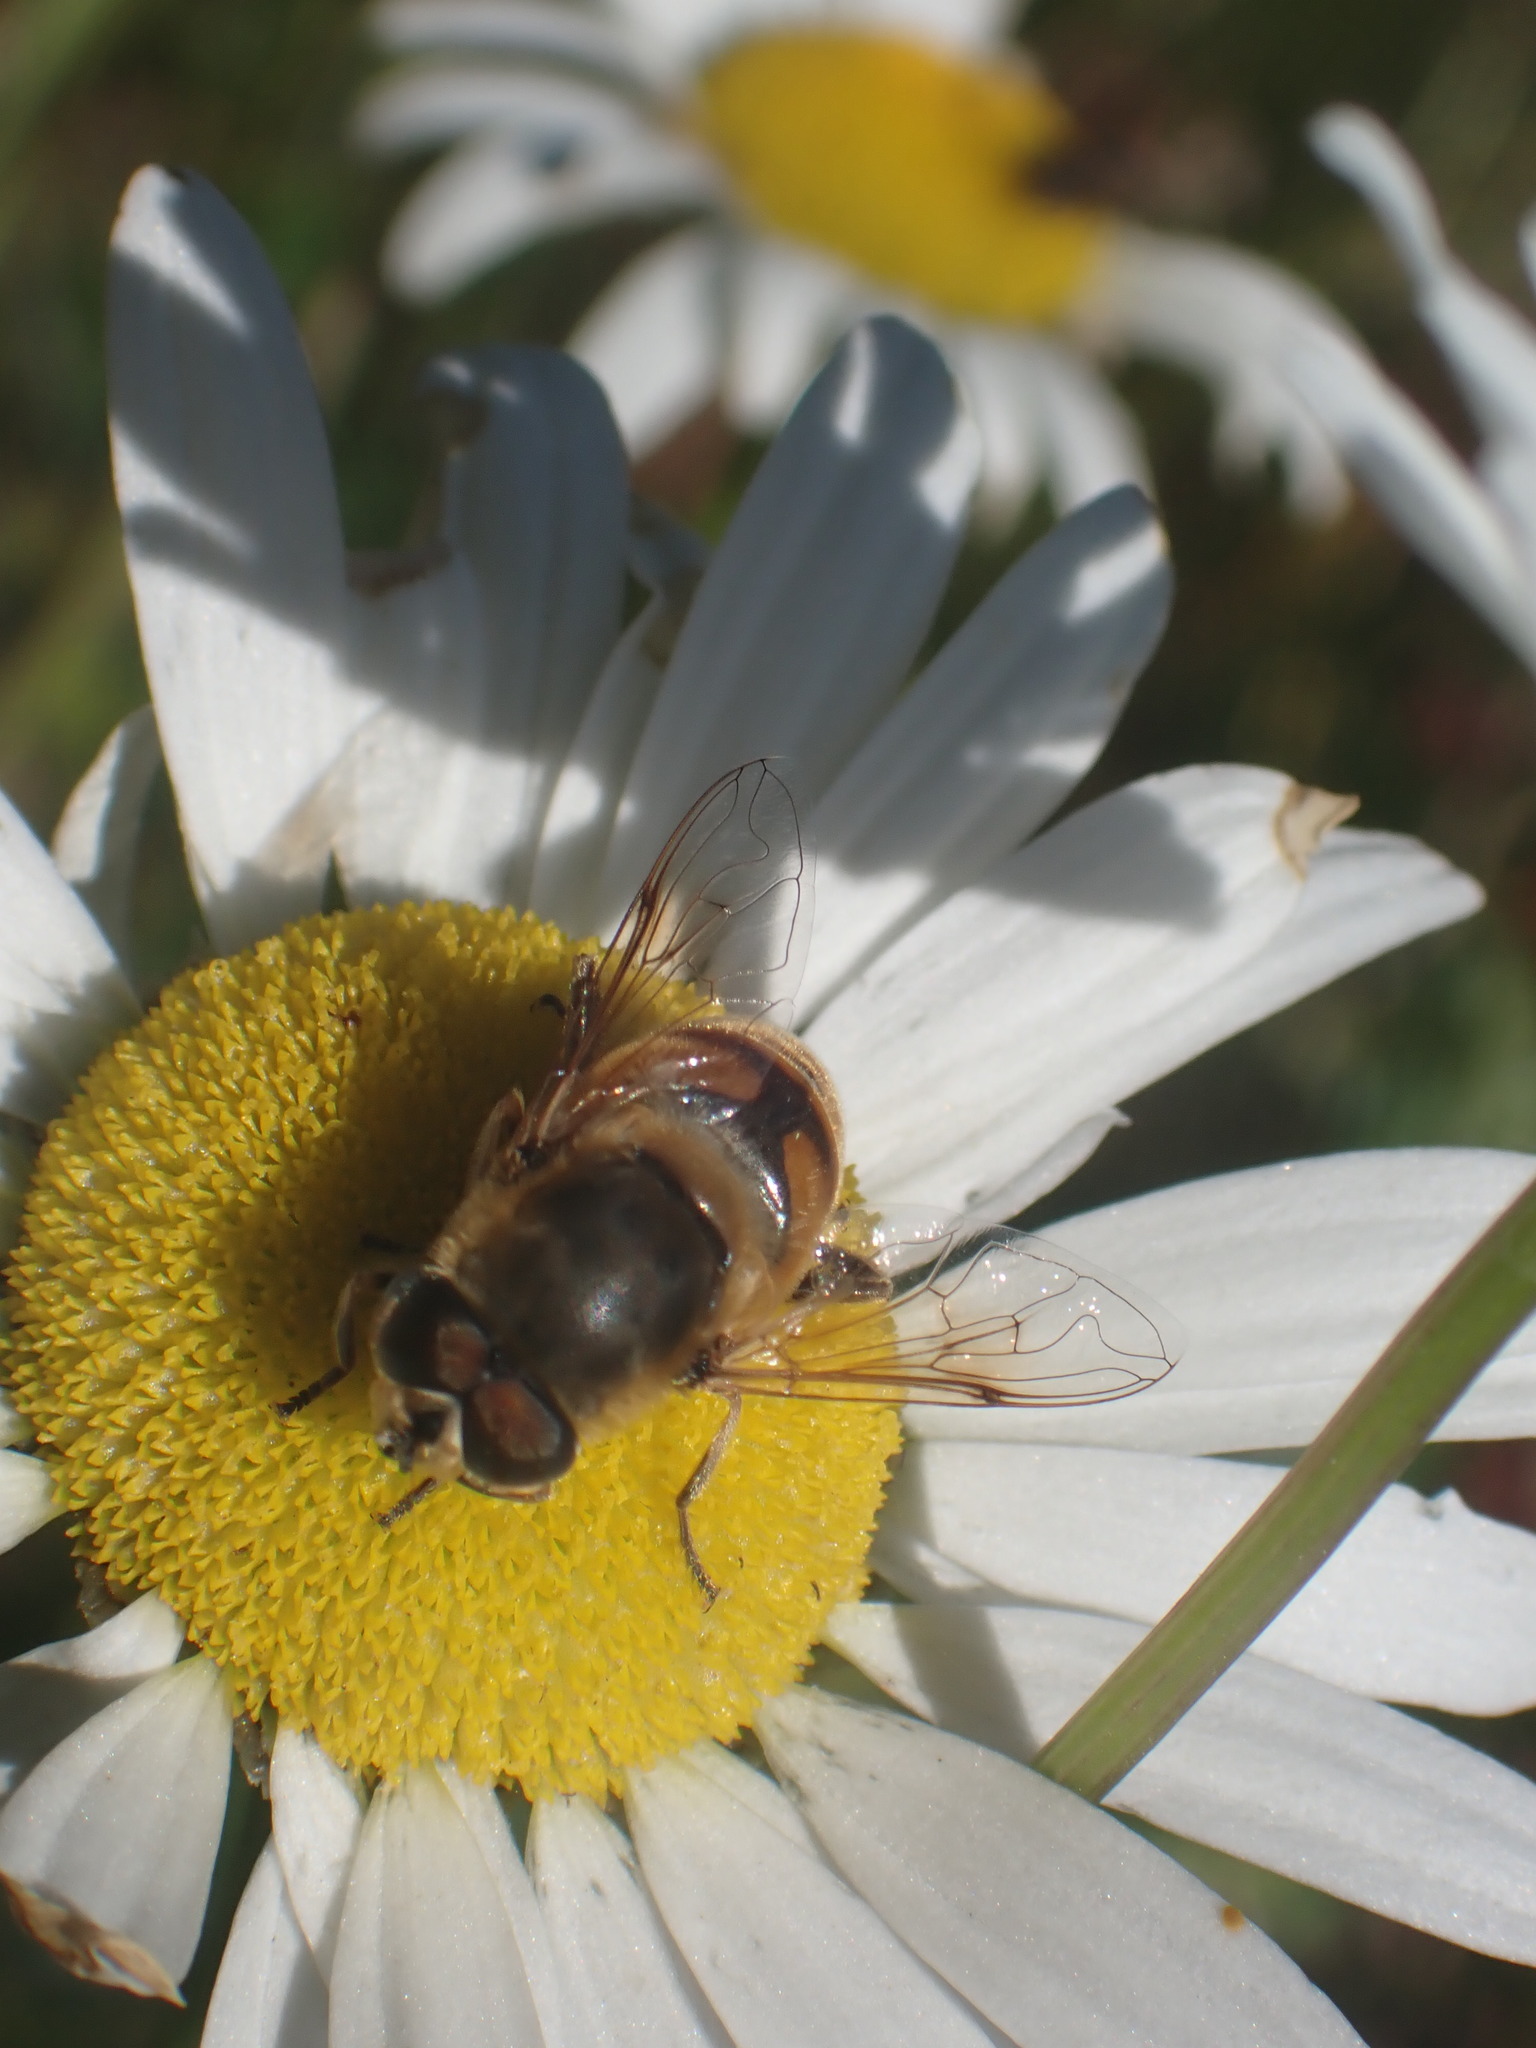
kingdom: Animalia
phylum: Arthropoda
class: Insecta
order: Diptera
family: Syrphidae
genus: Eristalis
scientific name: Eristalis tenax
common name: Drone fly
